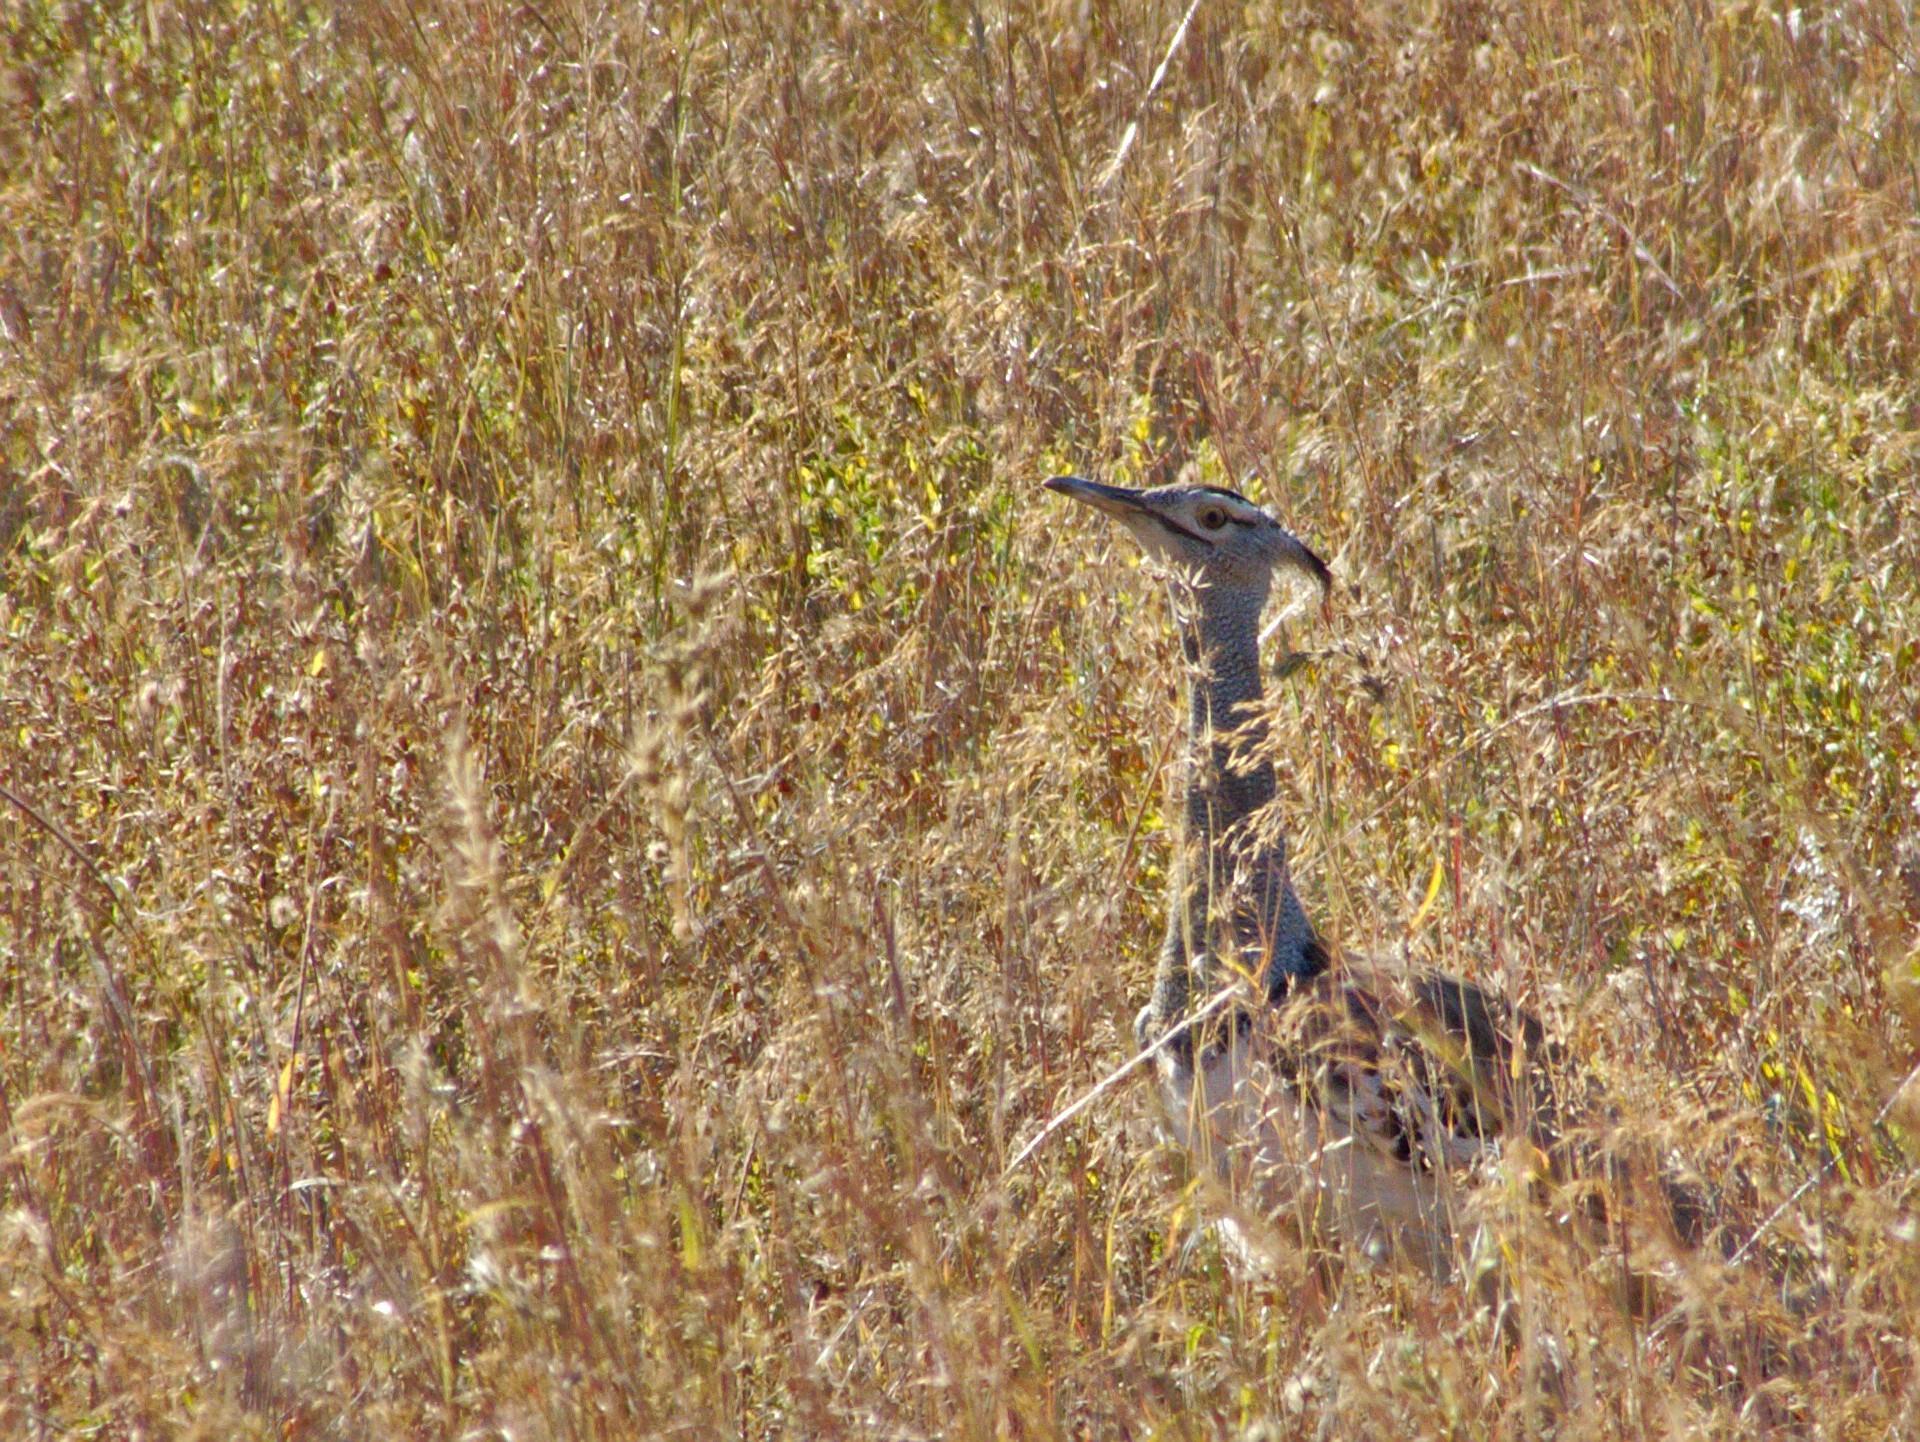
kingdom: Animalia
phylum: Chordata
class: Aves
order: Otidiformes
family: Otididae
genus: Ardeotis
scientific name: Ardeotis kori
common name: Kori bustard
